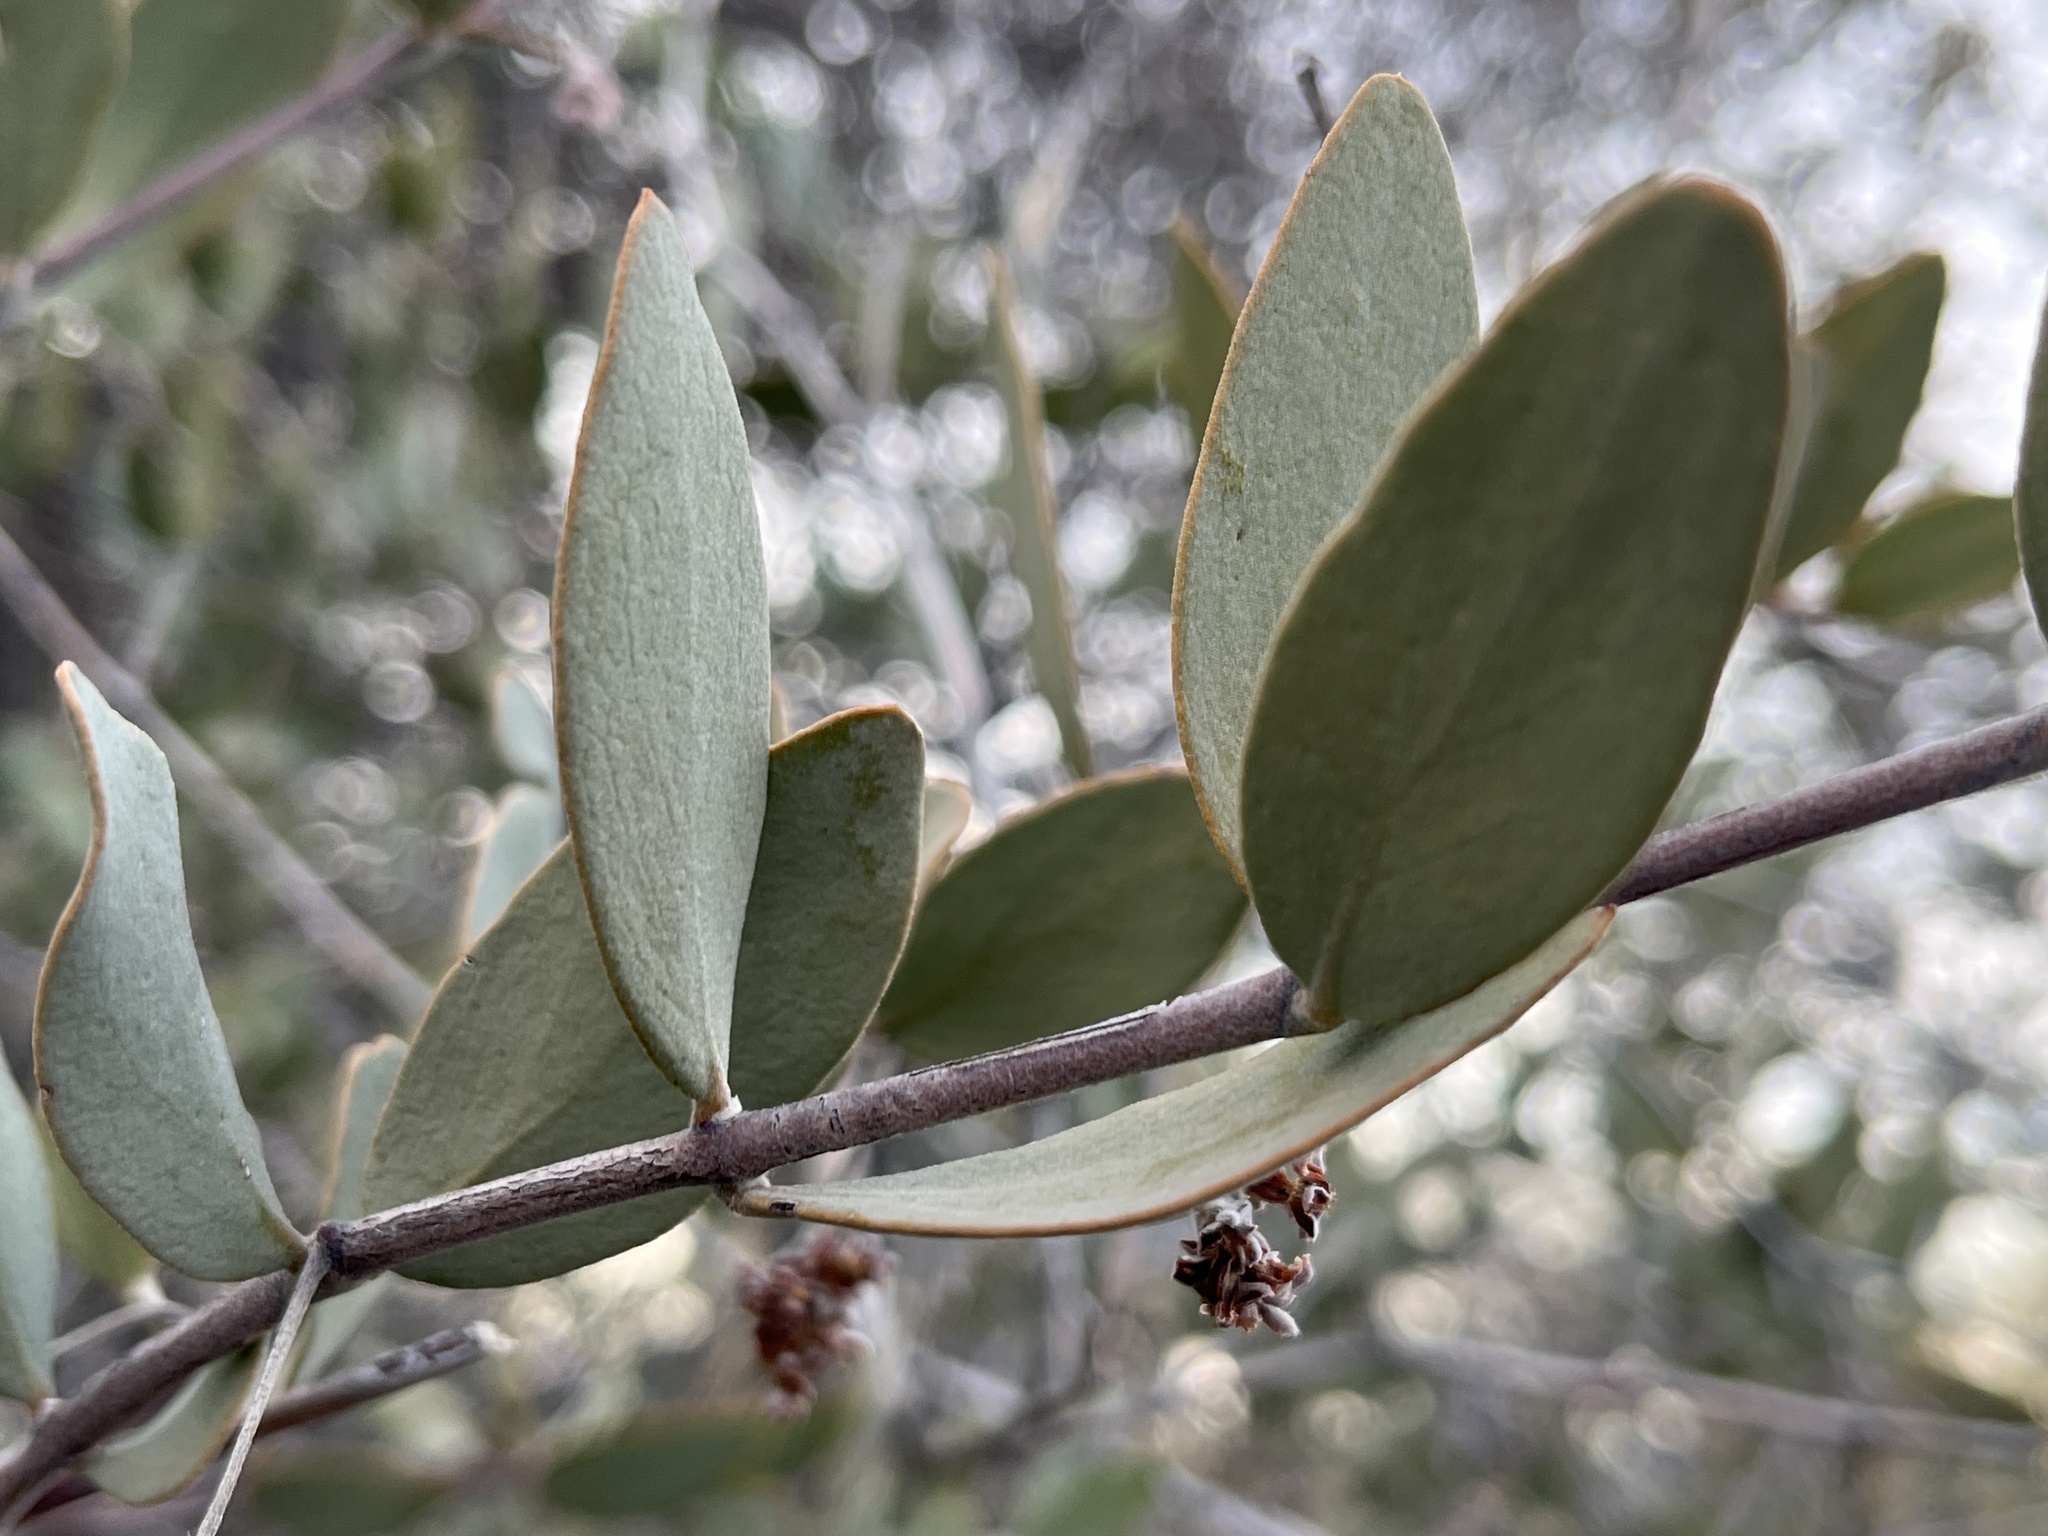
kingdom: Plantae
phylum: Tracheophyta
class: Magnoliopsida
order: Caryophyllales
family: Simmondsiaceae
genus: Simmondsia
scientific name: Simmondsia chinensis
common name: Jojoba
